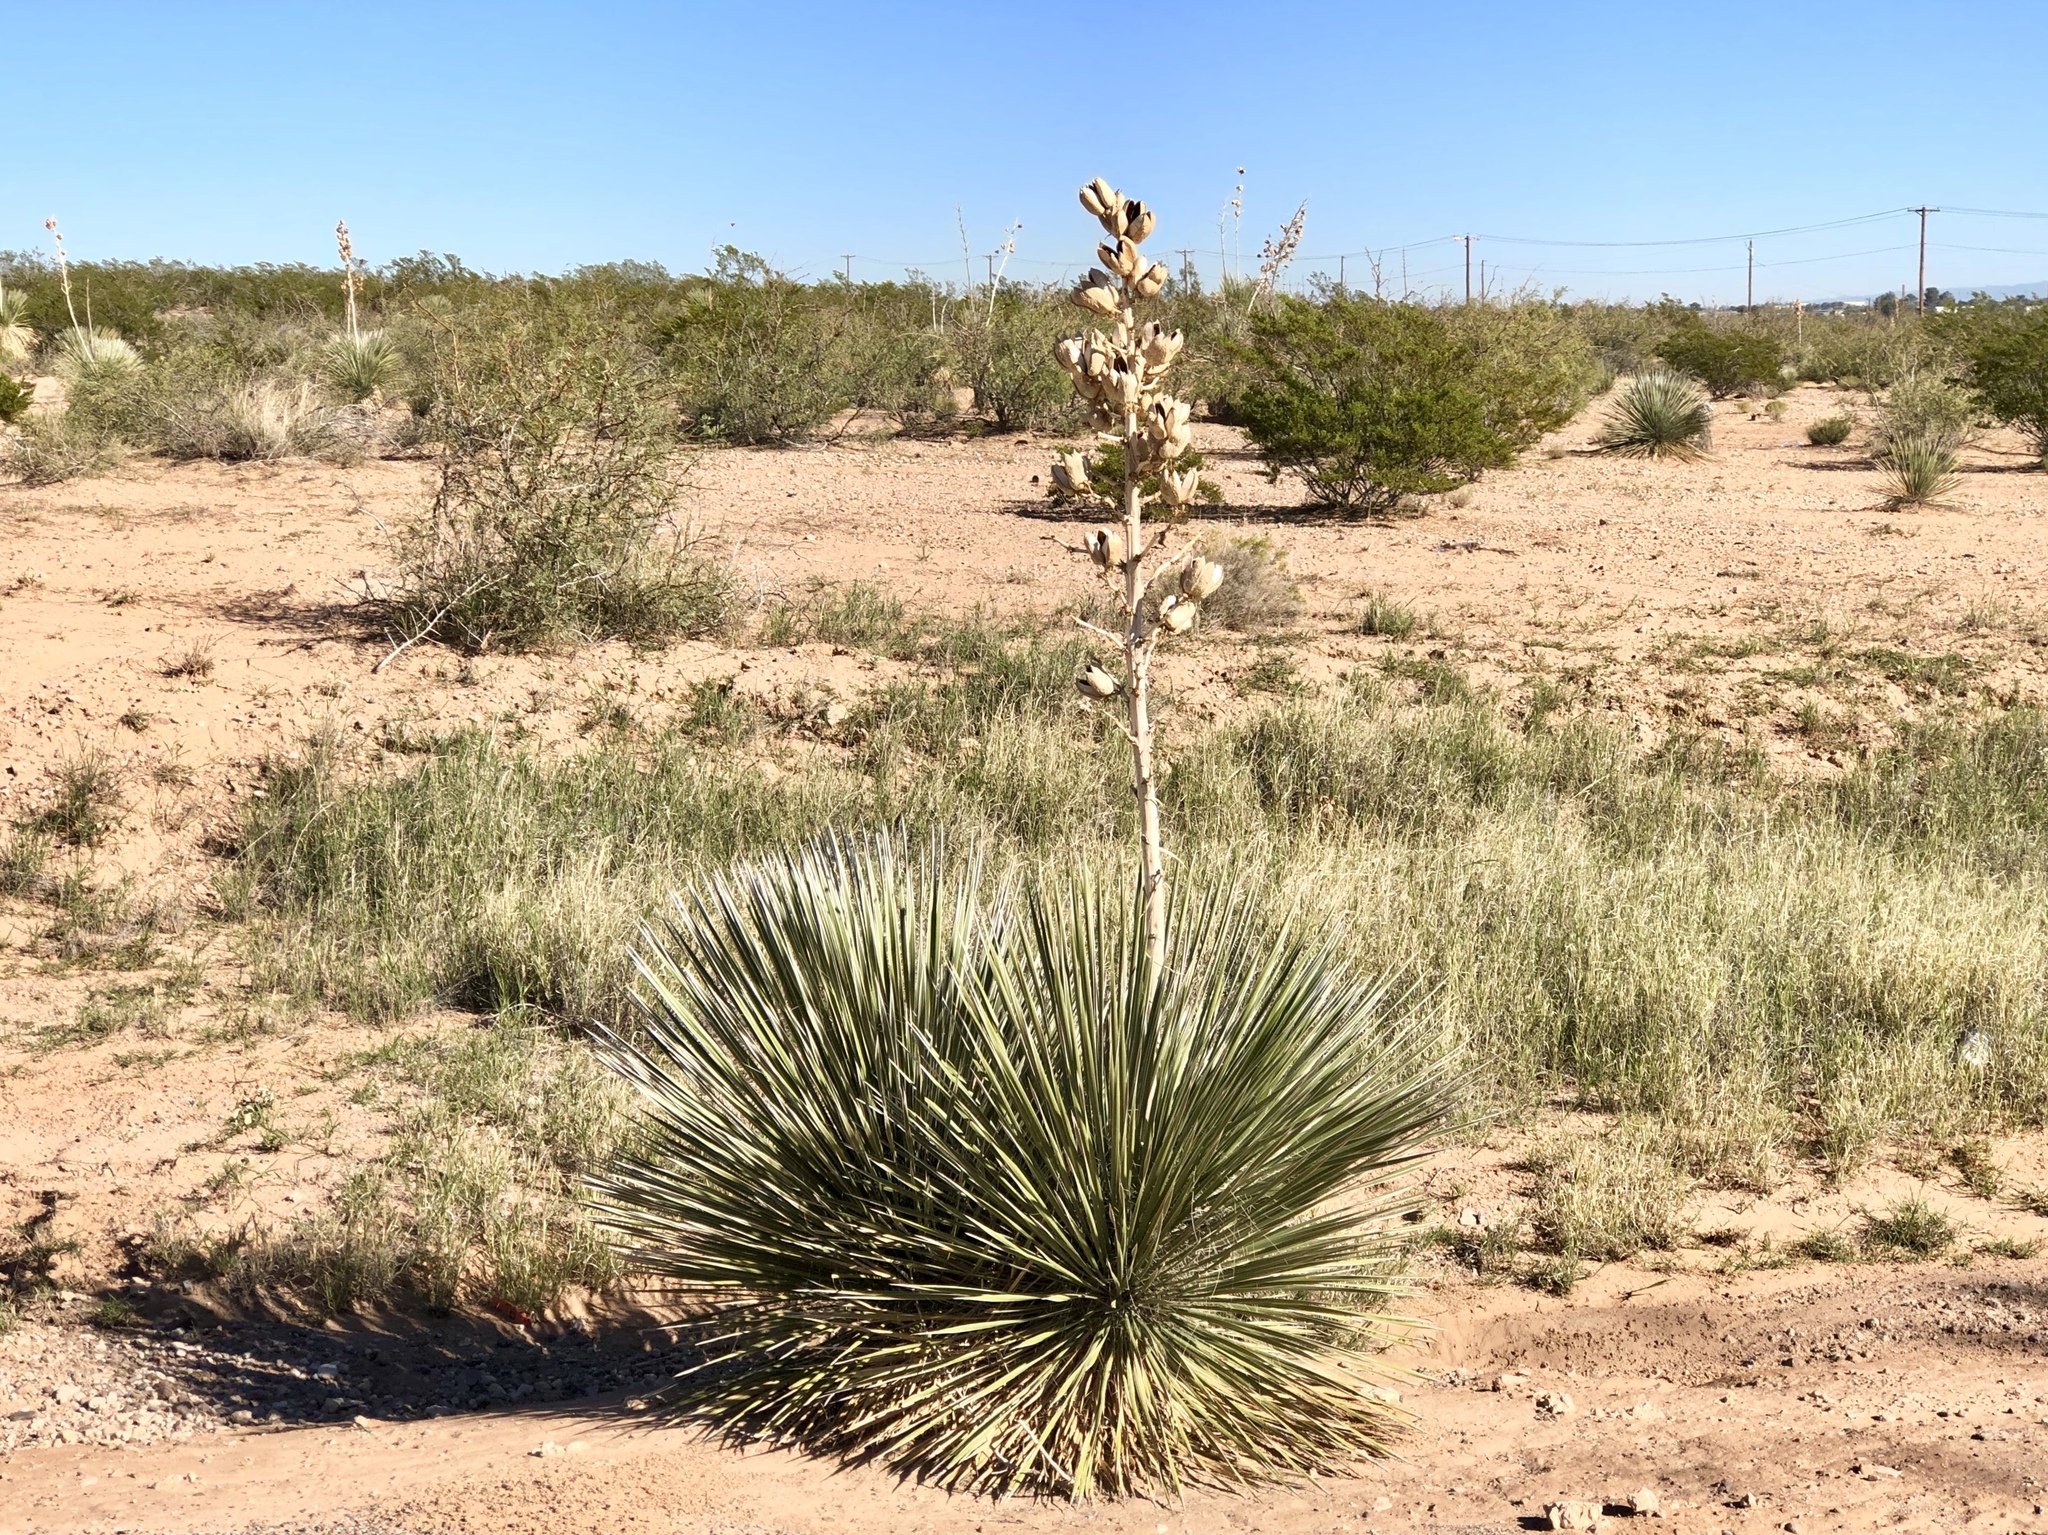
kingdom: Plantae
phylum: Tracheophyta
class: Liliopsida
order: Asparagales
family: Asparagaceae
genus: Yucca
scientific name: Yucca elata
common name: Palmella
